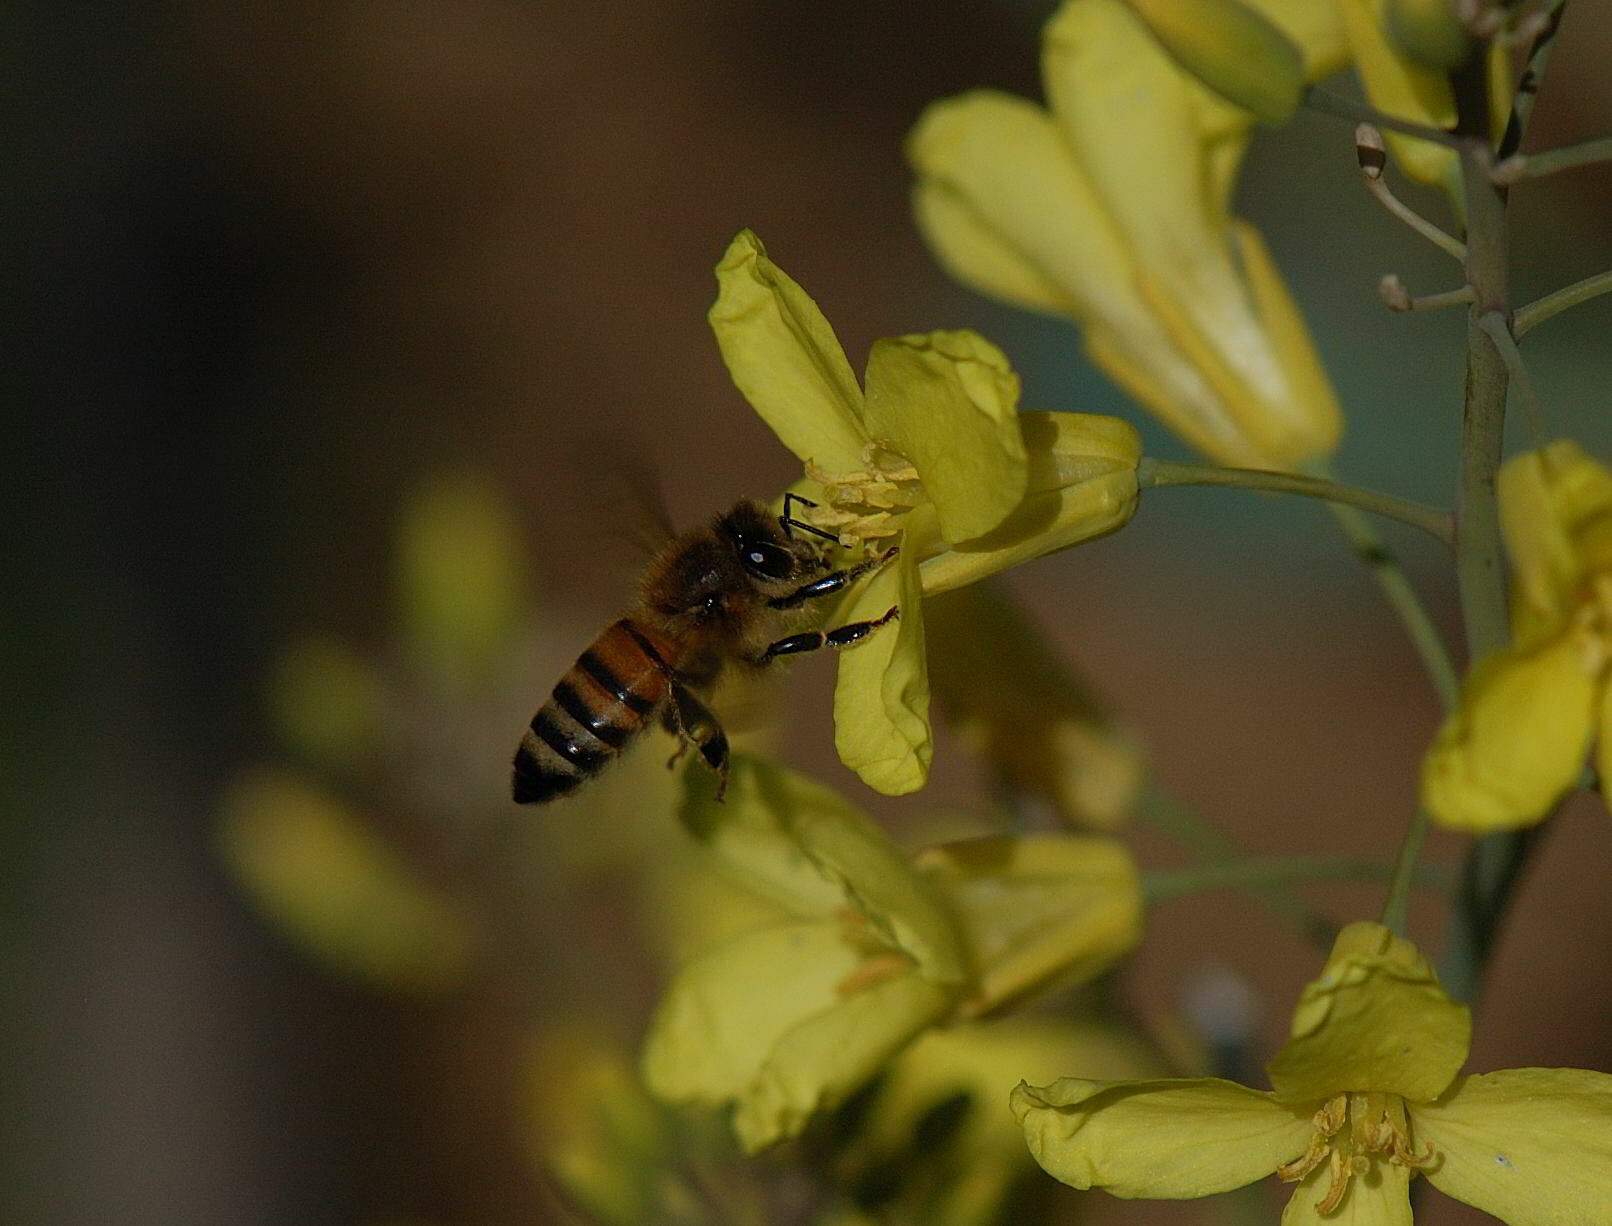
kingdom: Animalia
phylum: Arthropoda
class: Insecta
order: Hymenoptera
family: Apidae
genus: Apis
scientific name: Apis mellifera
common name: Honey bee
